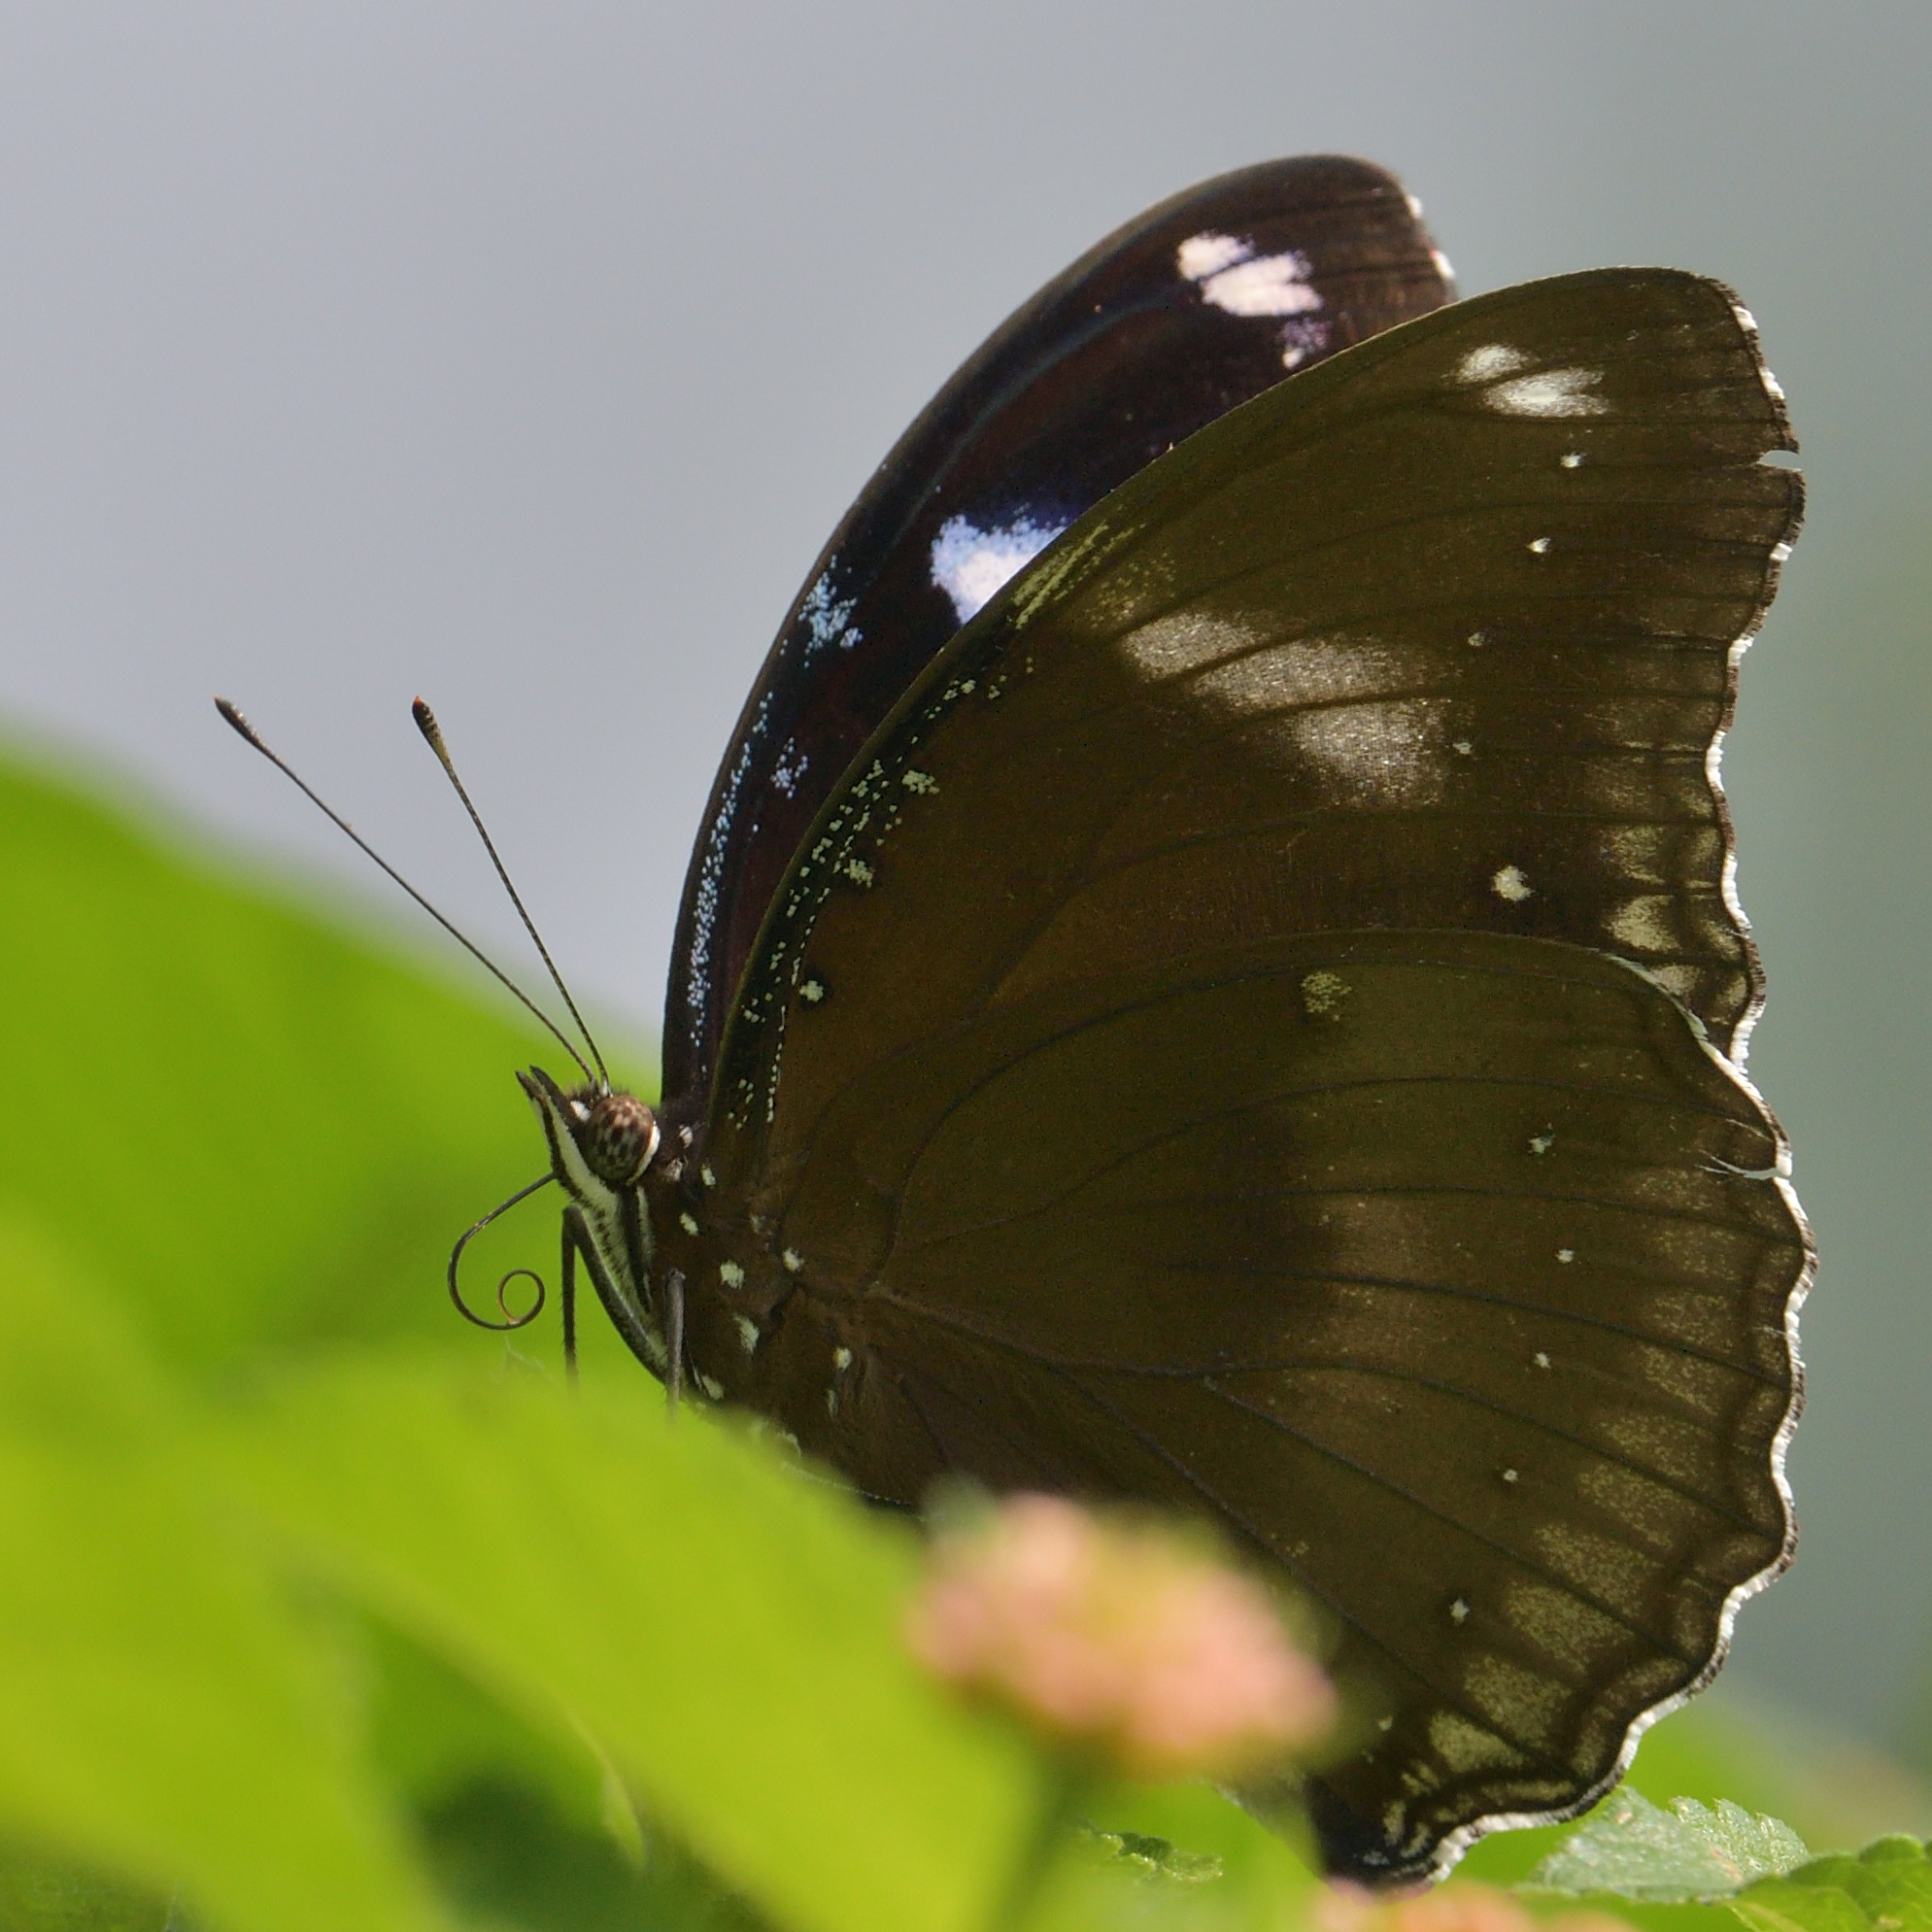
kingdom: Animalia
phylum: Arthropoda
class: Insecta
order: Lepidoptera
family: Nymphalidae
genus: Hypolimnas
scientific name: Hypolimnas bolina
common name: Great eggfly
